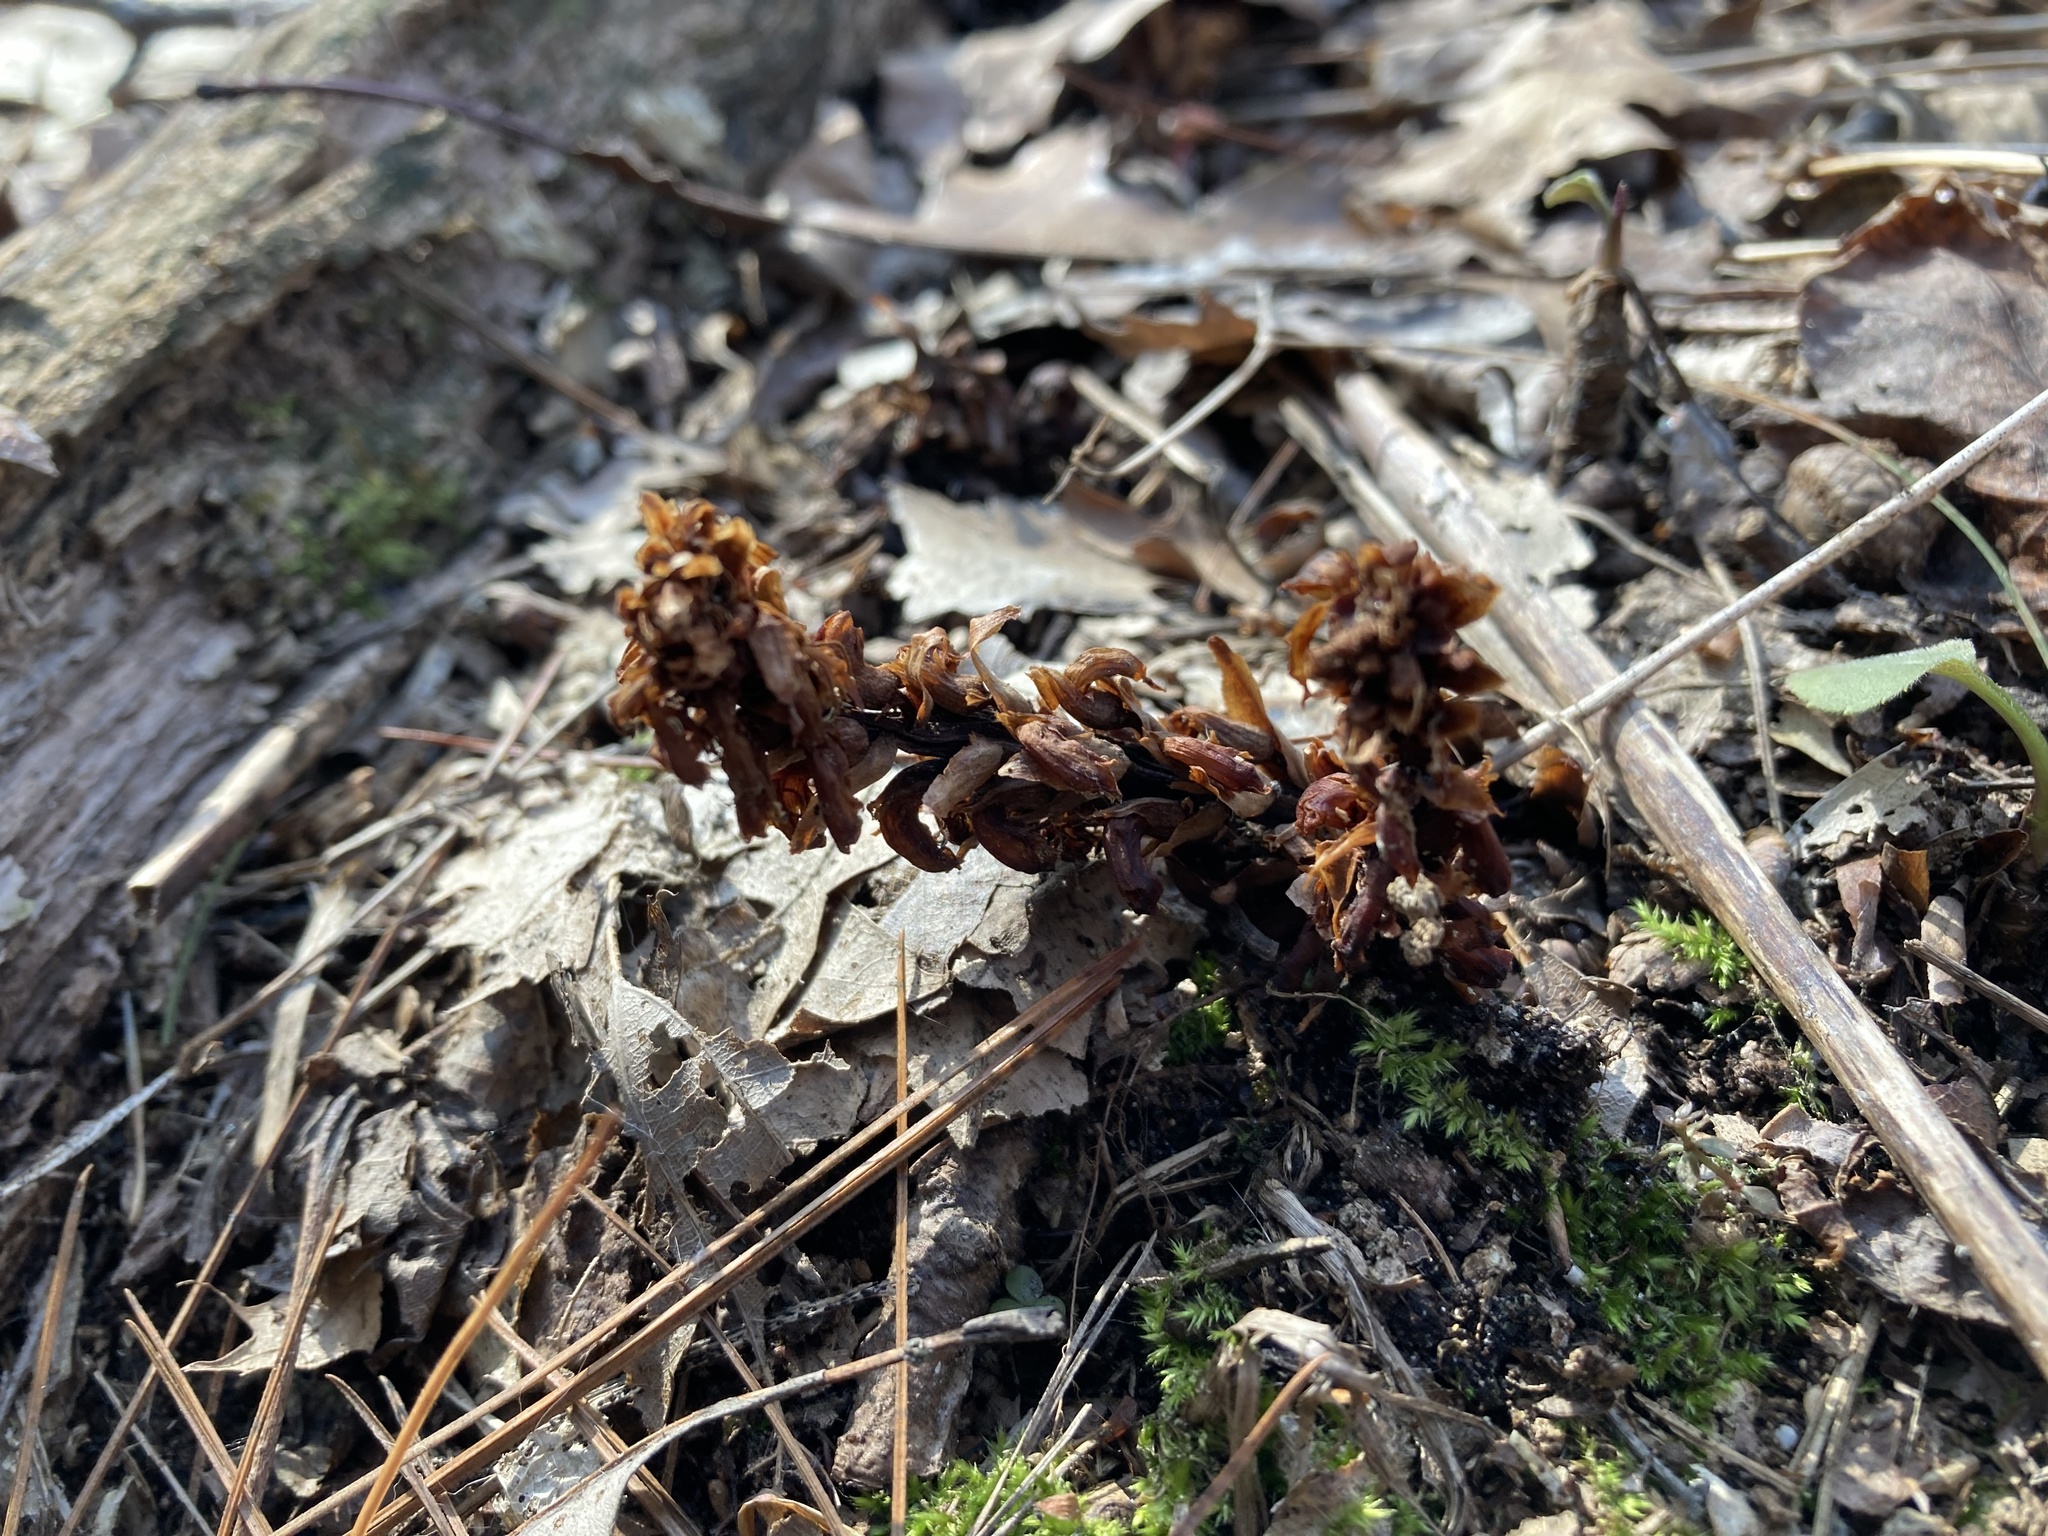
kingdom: Plantae
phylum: Tracheophyta
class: Magnoliopsida
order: Lamiales
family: Orobanchaceae
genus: Conopholis
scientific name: Conopholis americana
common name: American cancer-root
